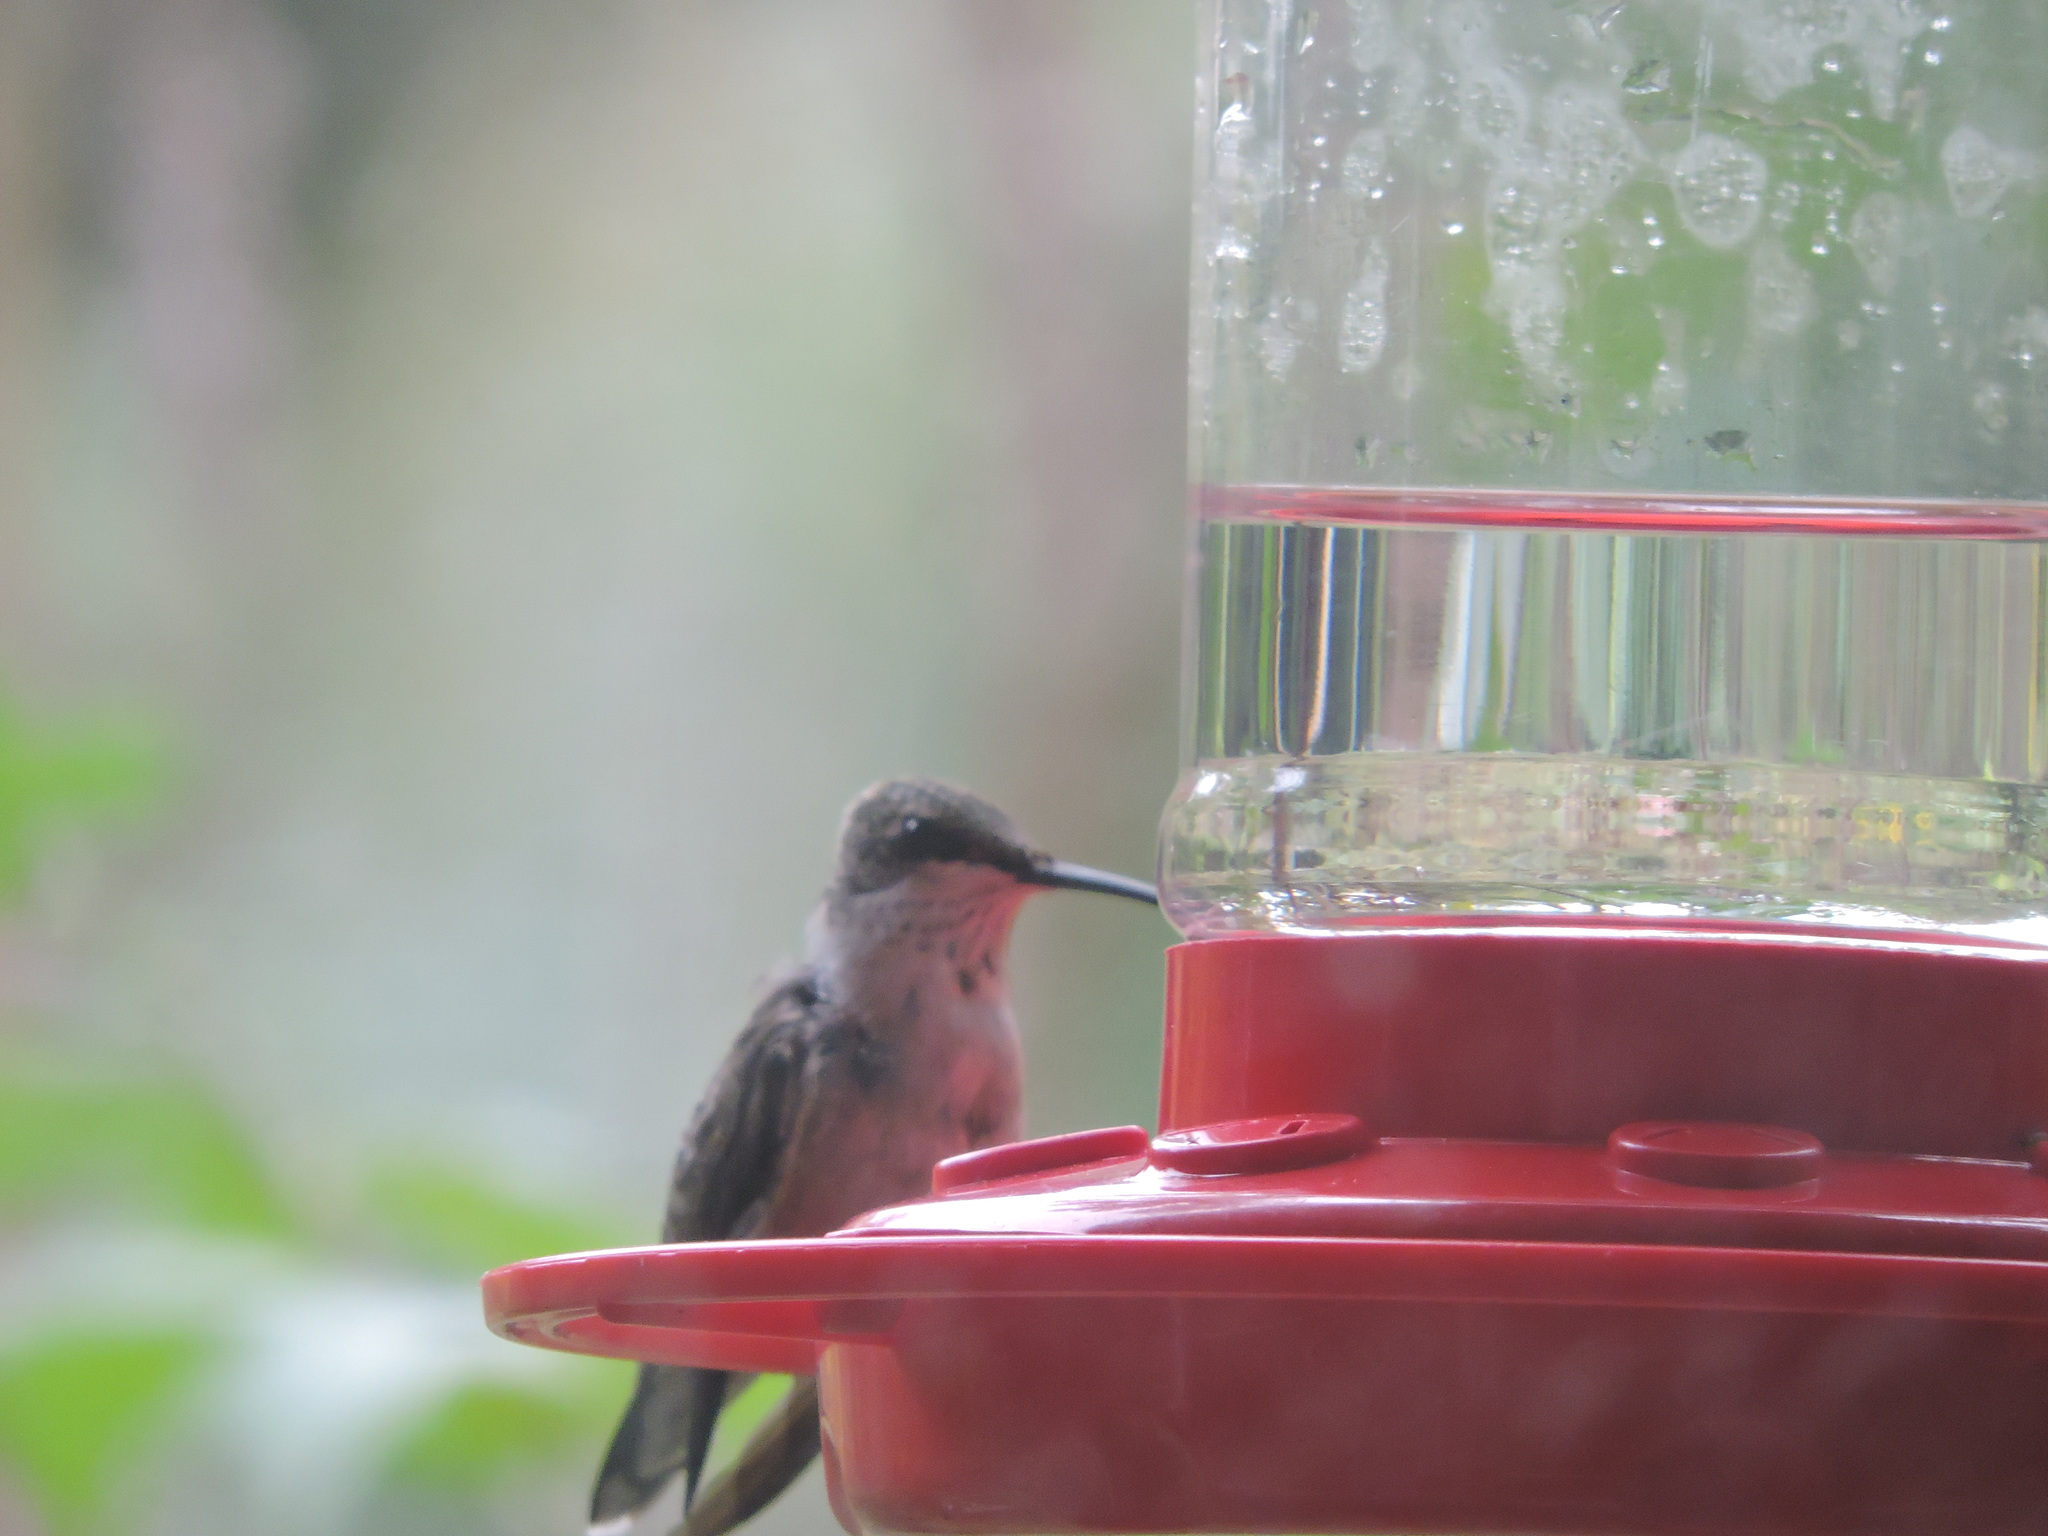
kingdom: Animalia
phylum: Chordata
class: Aves
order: Apodiformes
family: Trochilidae
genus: Archilochus
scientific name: Archilochus colubris
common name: Ruby-throated hummingbird
